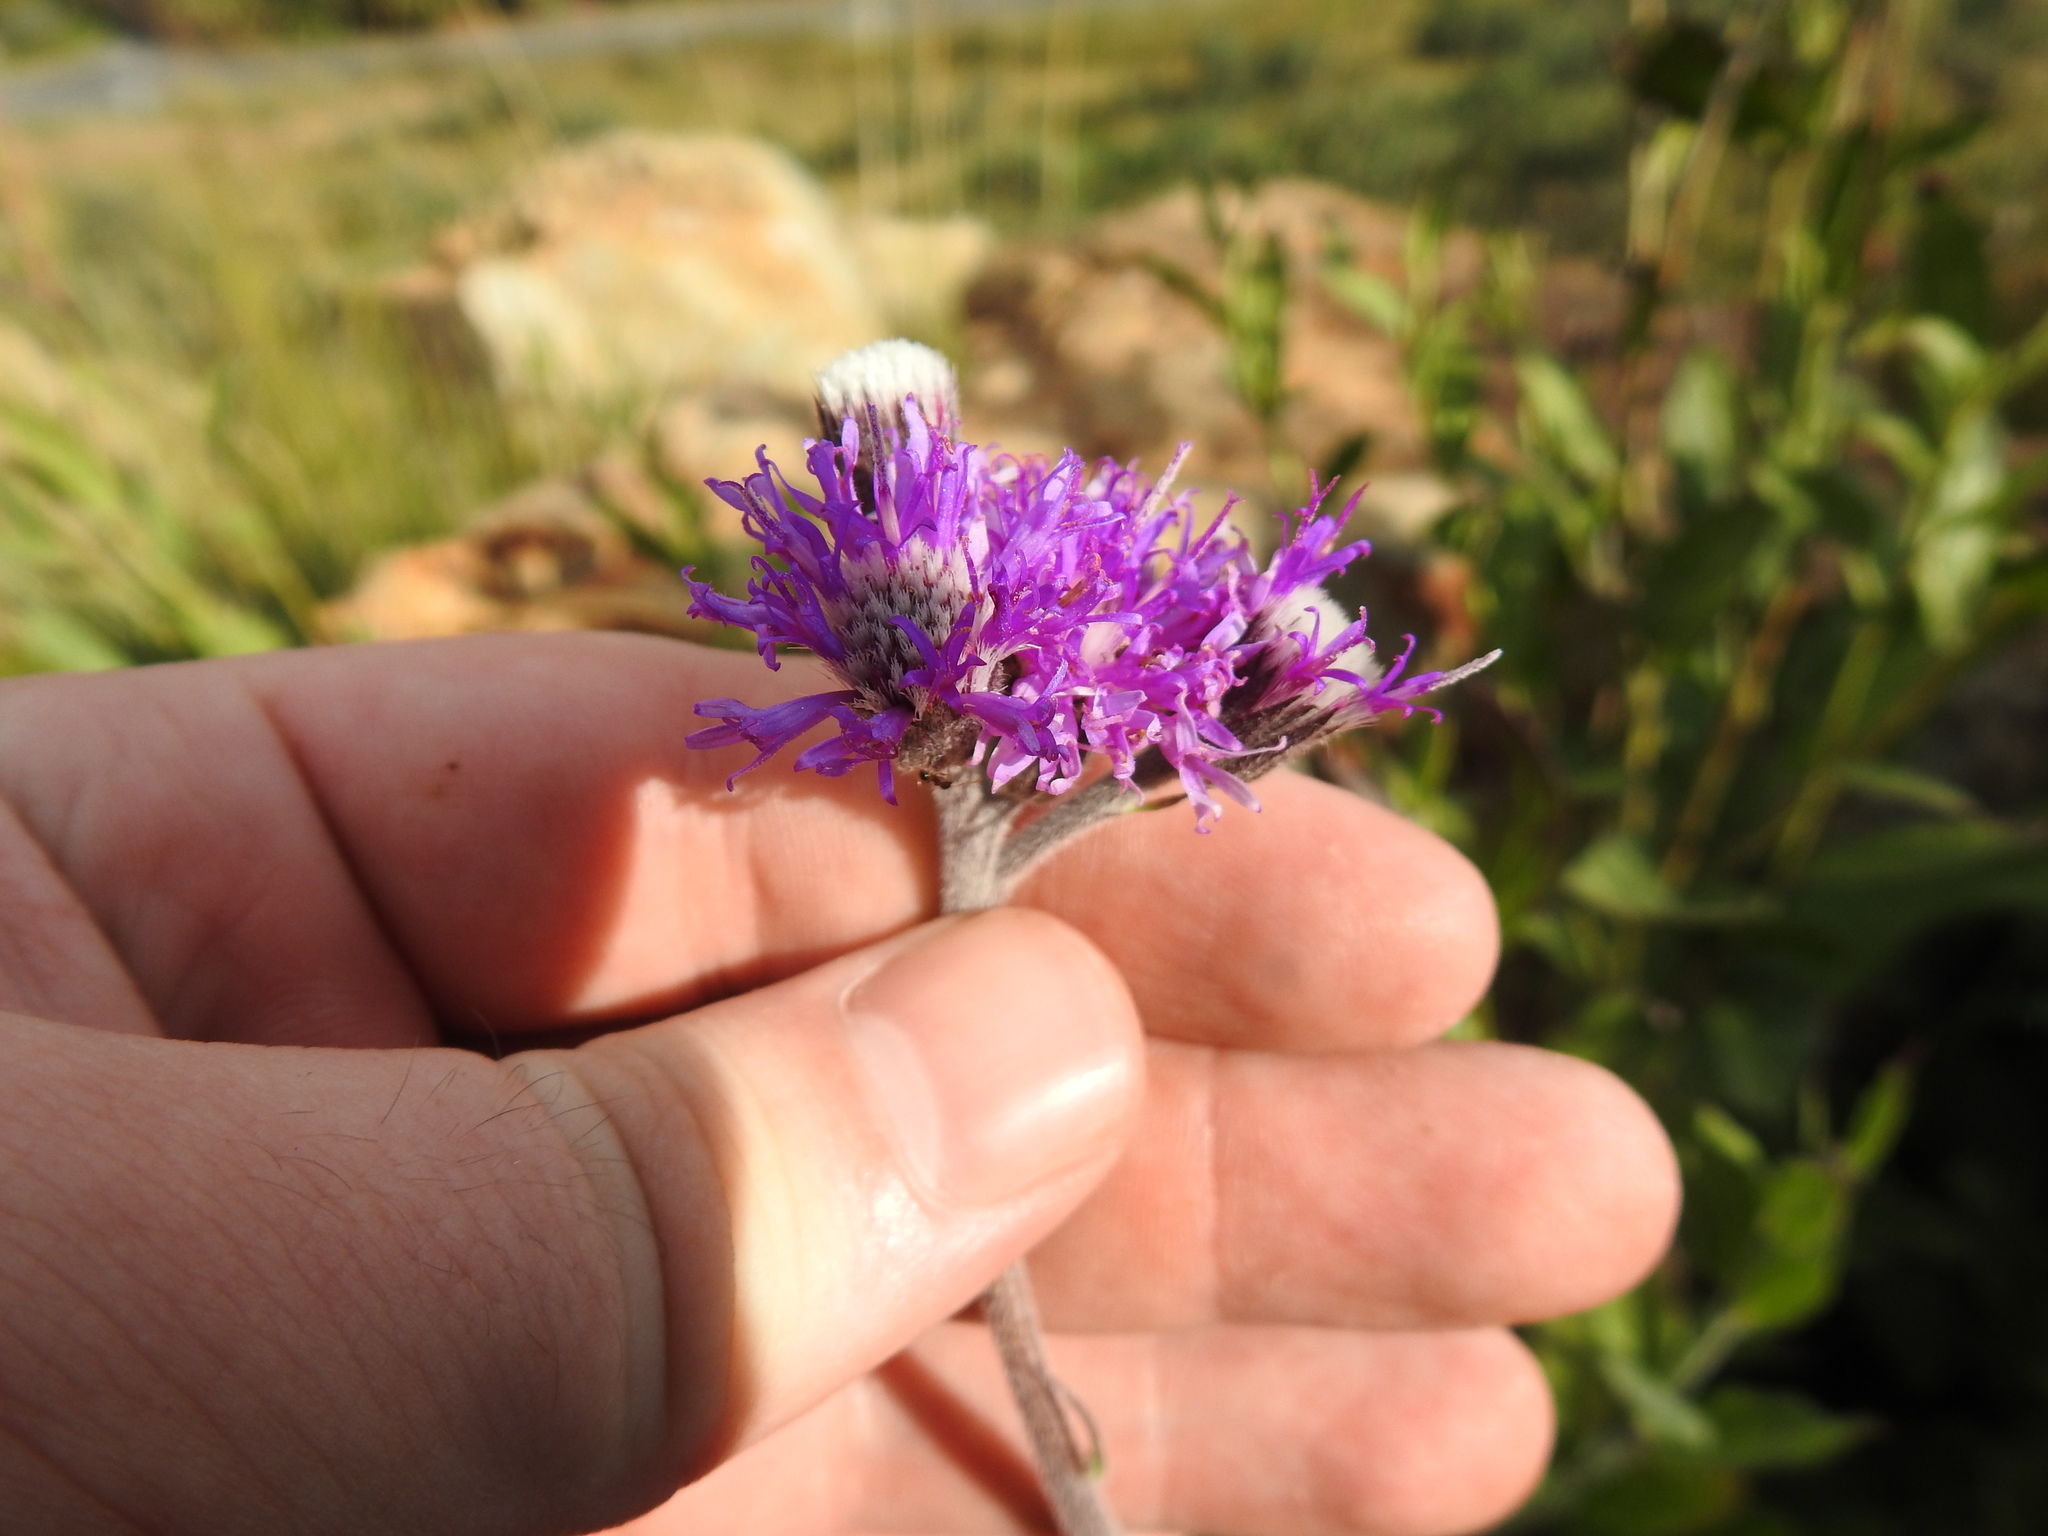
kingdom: Plantae
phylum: Tracheophyta
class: Magnoliopsida
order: Asterales
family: Asteraceae
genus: Hilliardiella
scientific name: Hilliardiella sutherlandii
